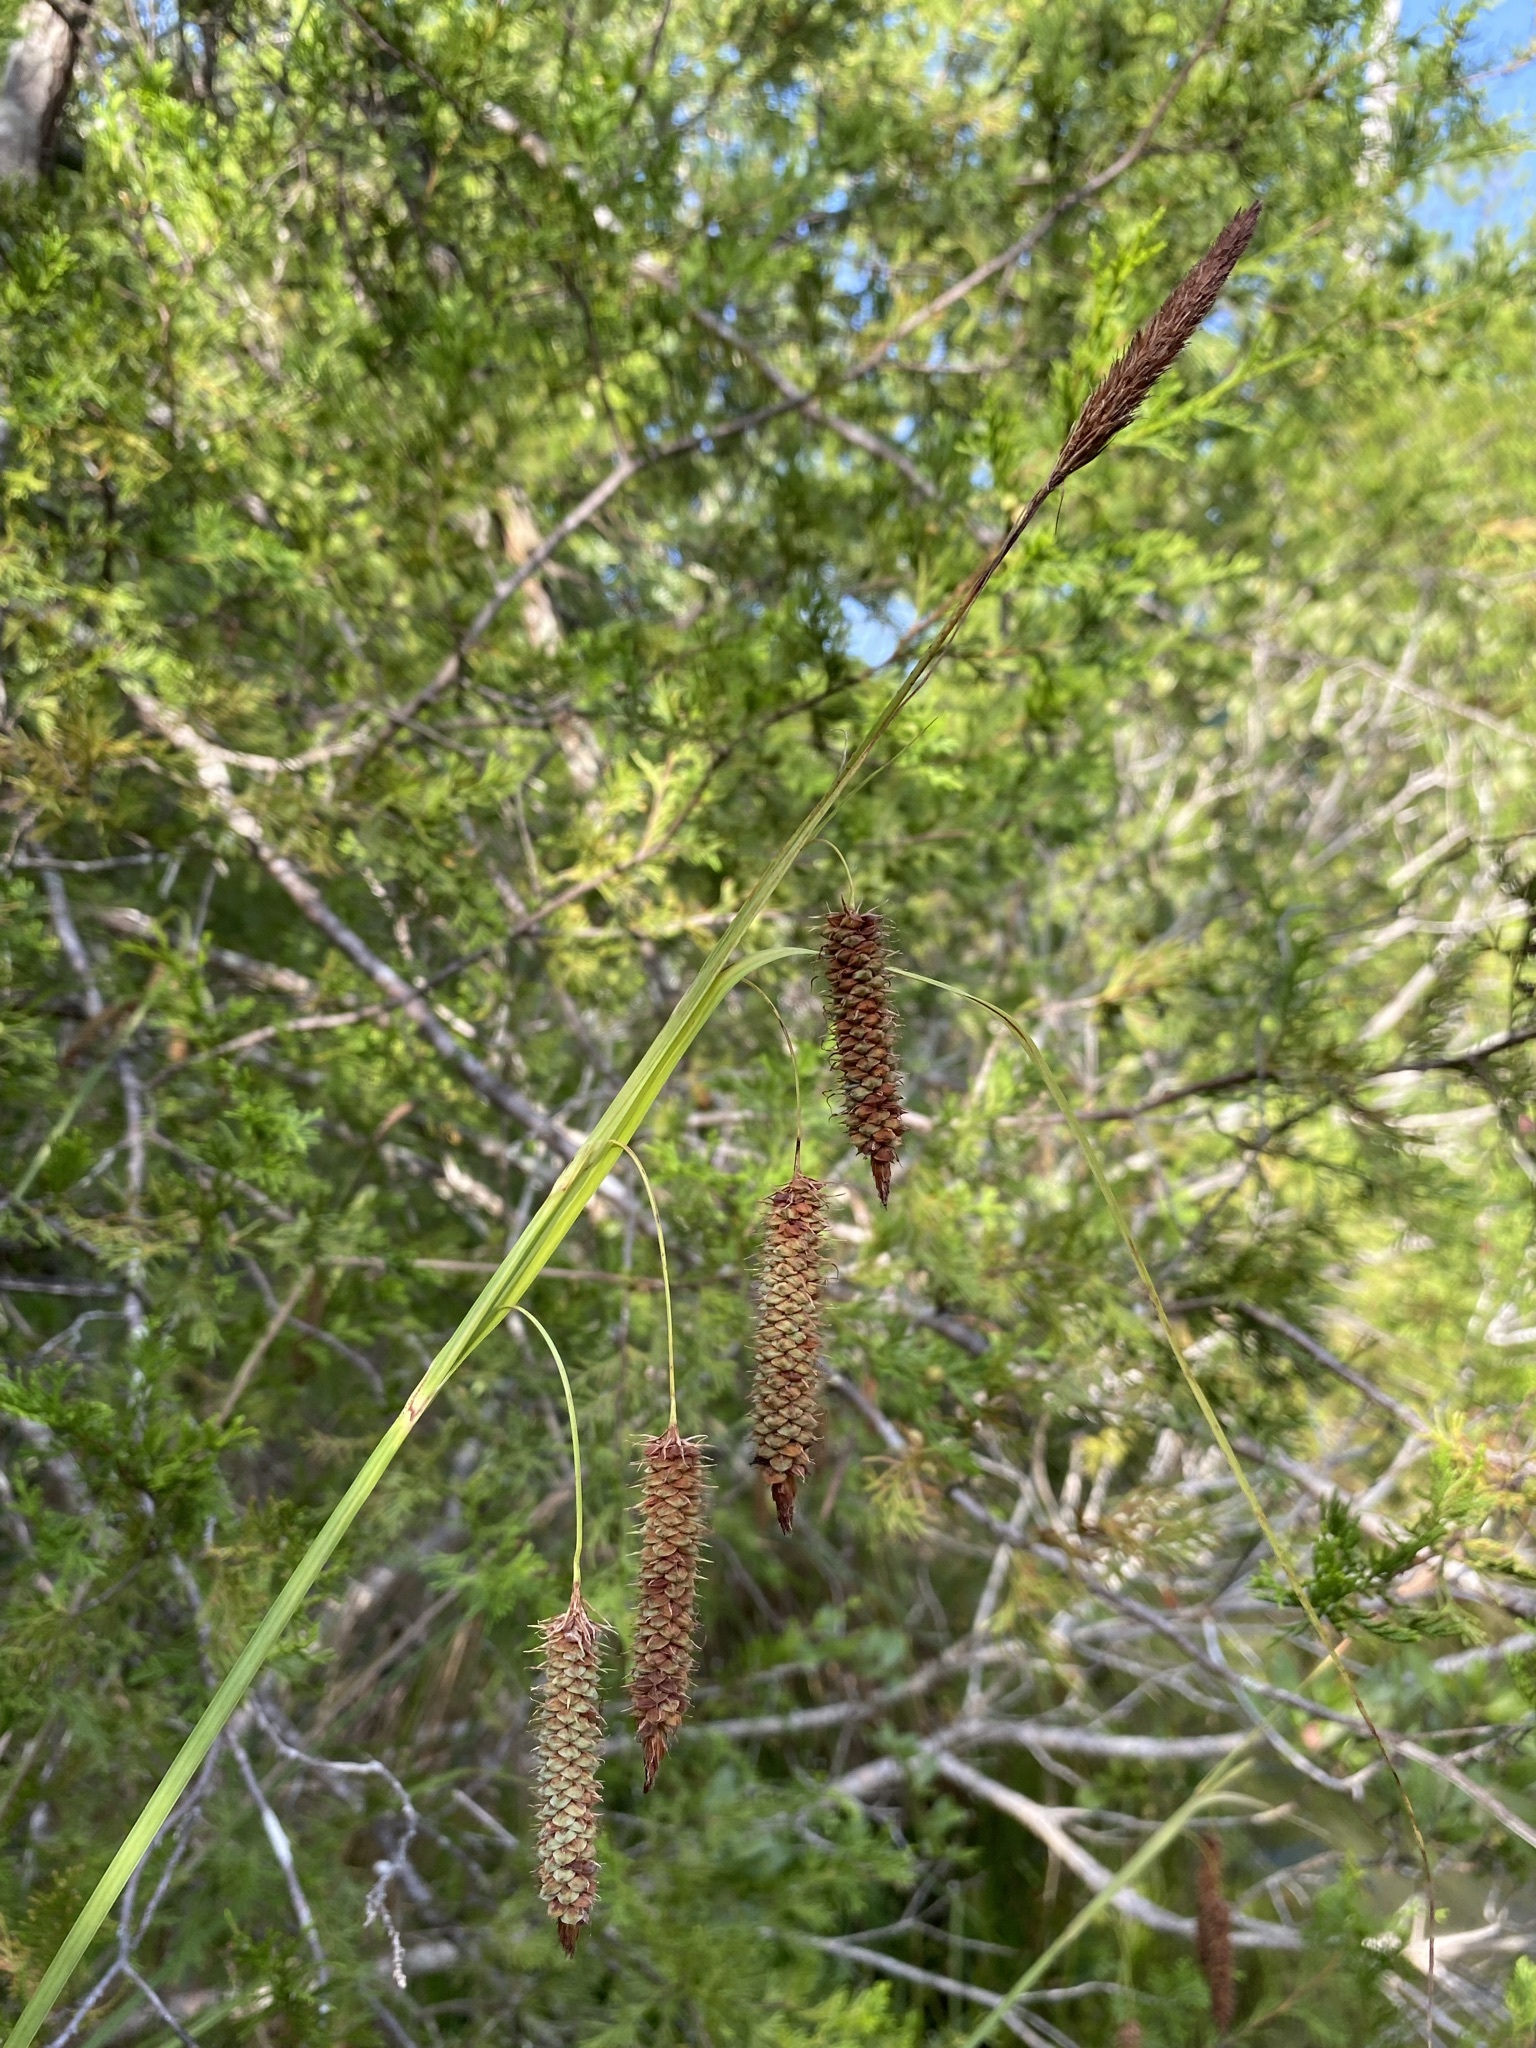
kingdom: Plantae
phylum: Tracheophyta
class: Liliopsida
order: Poales
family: Cyperaceae
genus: Carex
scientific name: Carex glaucescens
